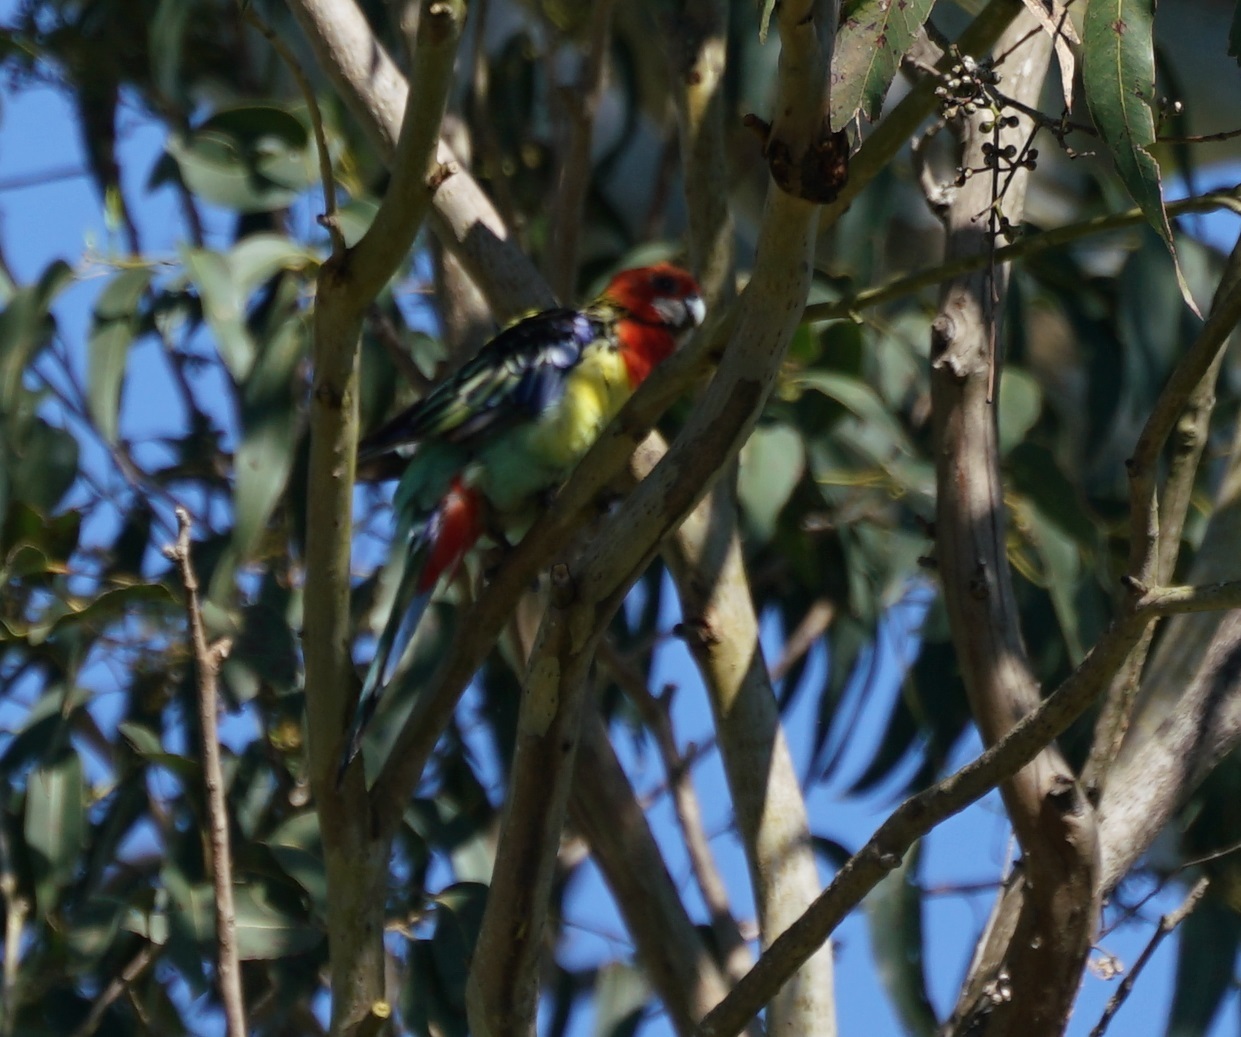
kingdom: Animalia
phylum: Chordata
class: Aves
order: Psittaciformes
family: Psittacidae
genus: Platycercus
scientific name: Platycercus eximius
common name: Eastern rosella
